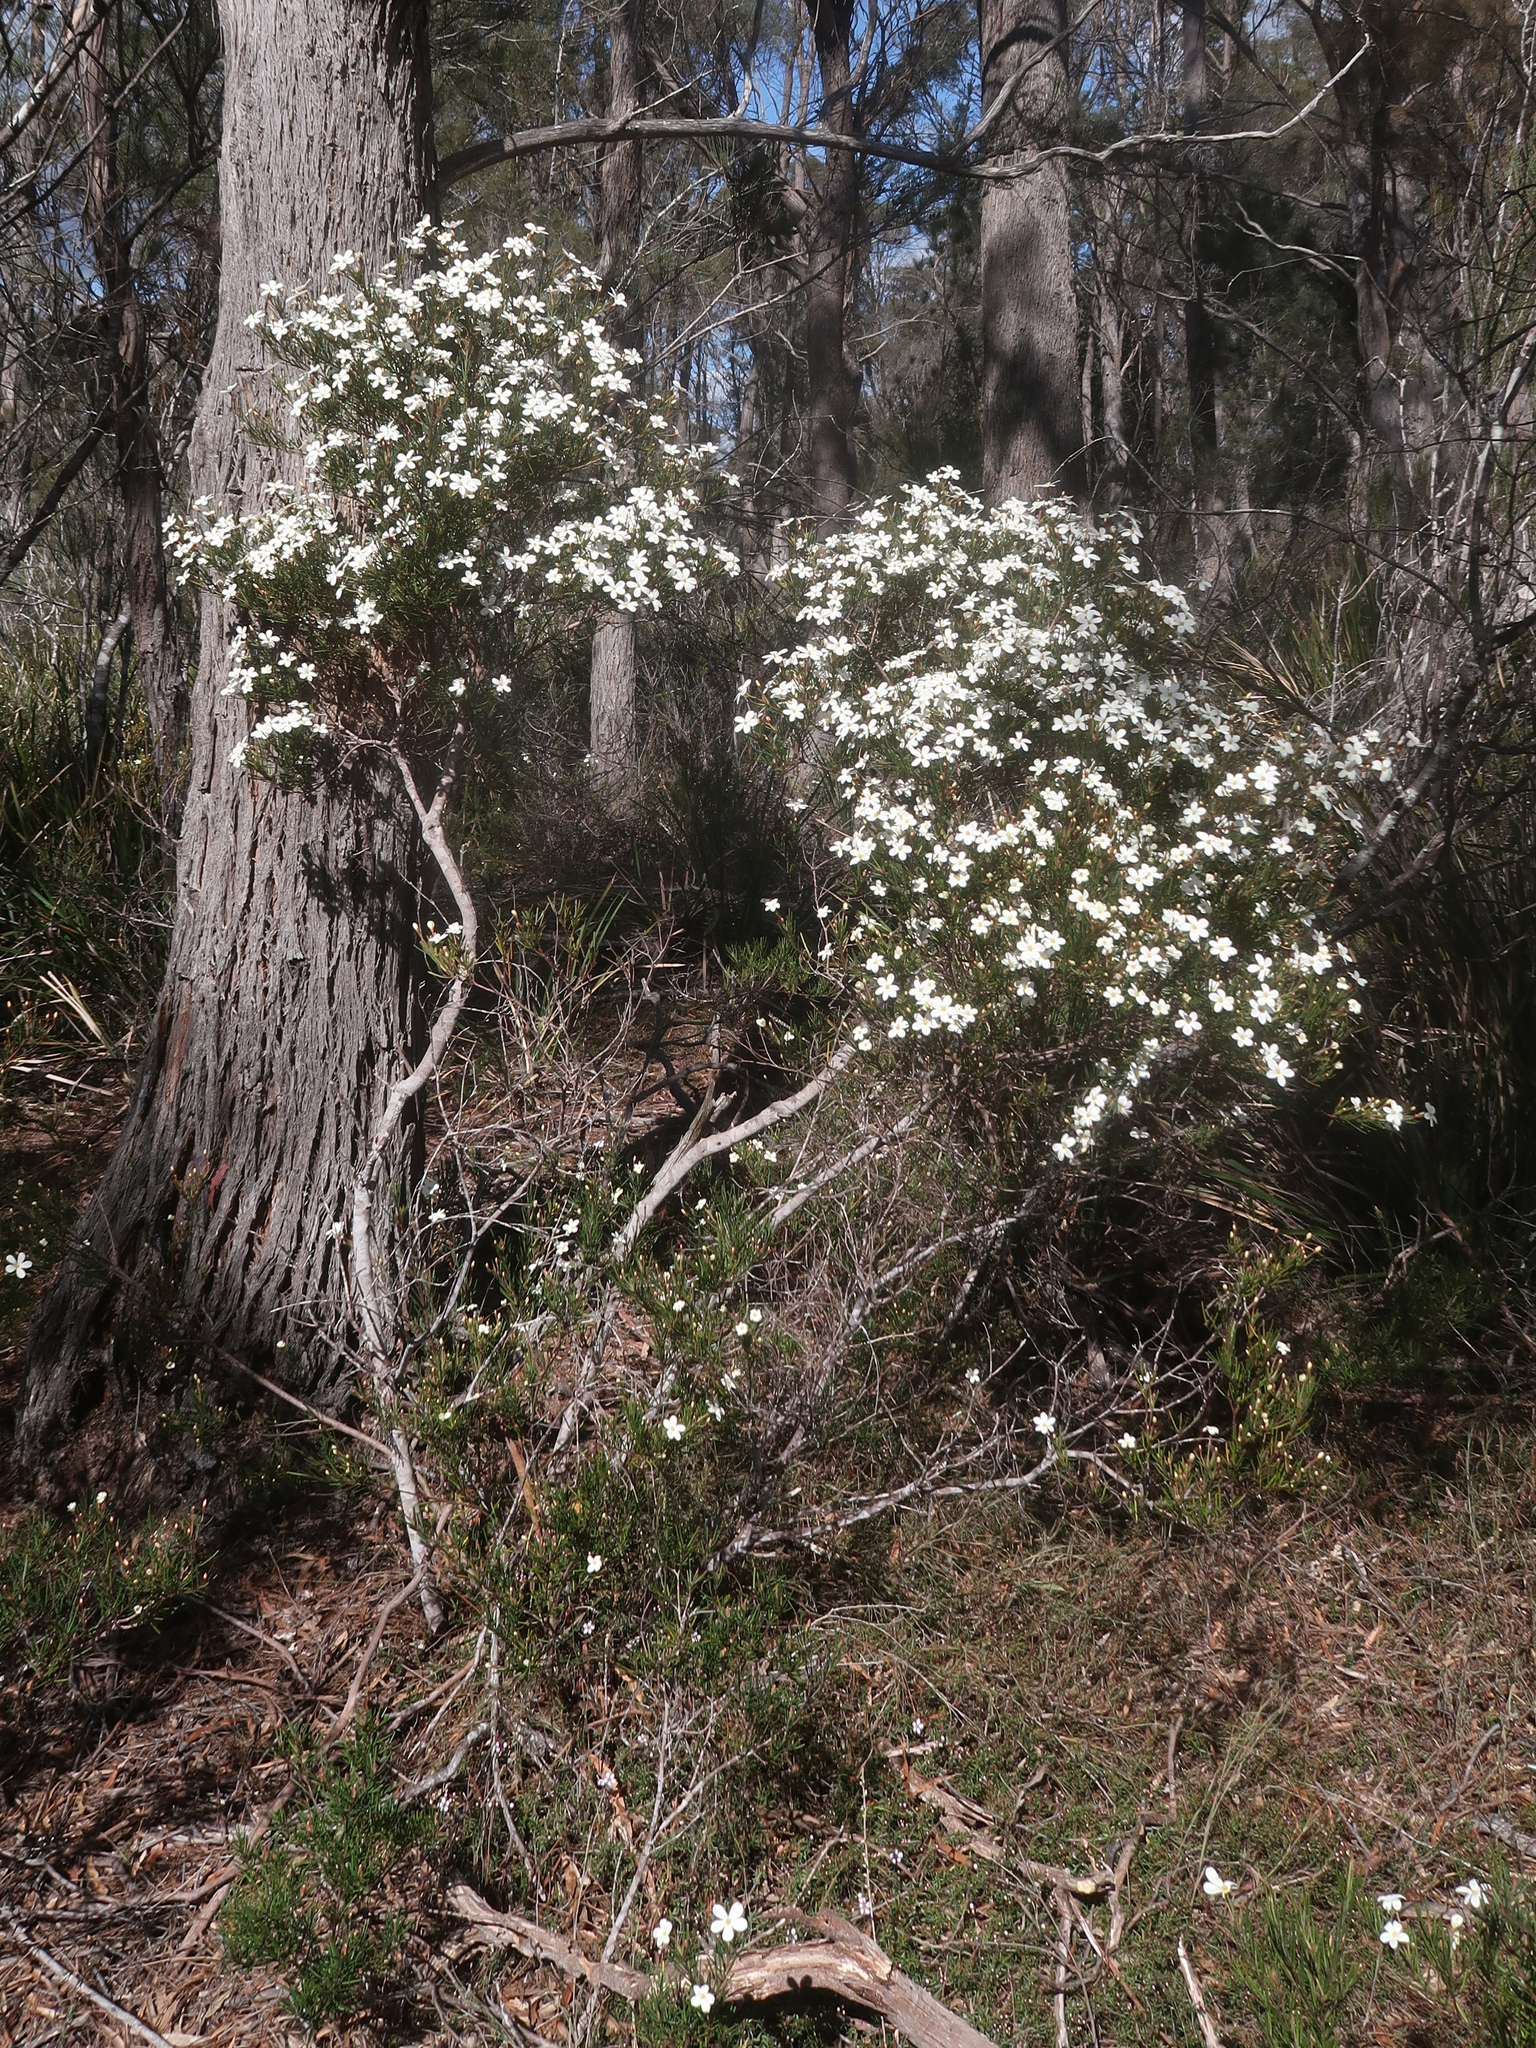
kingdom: Plantae
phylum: Tracheophyta
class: Magnoliopsida
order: Malpighiales
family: Euphorbiaceae
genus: Ricinocarpos
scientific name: Ricinocarpos pinifolius
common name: Weddingbush
